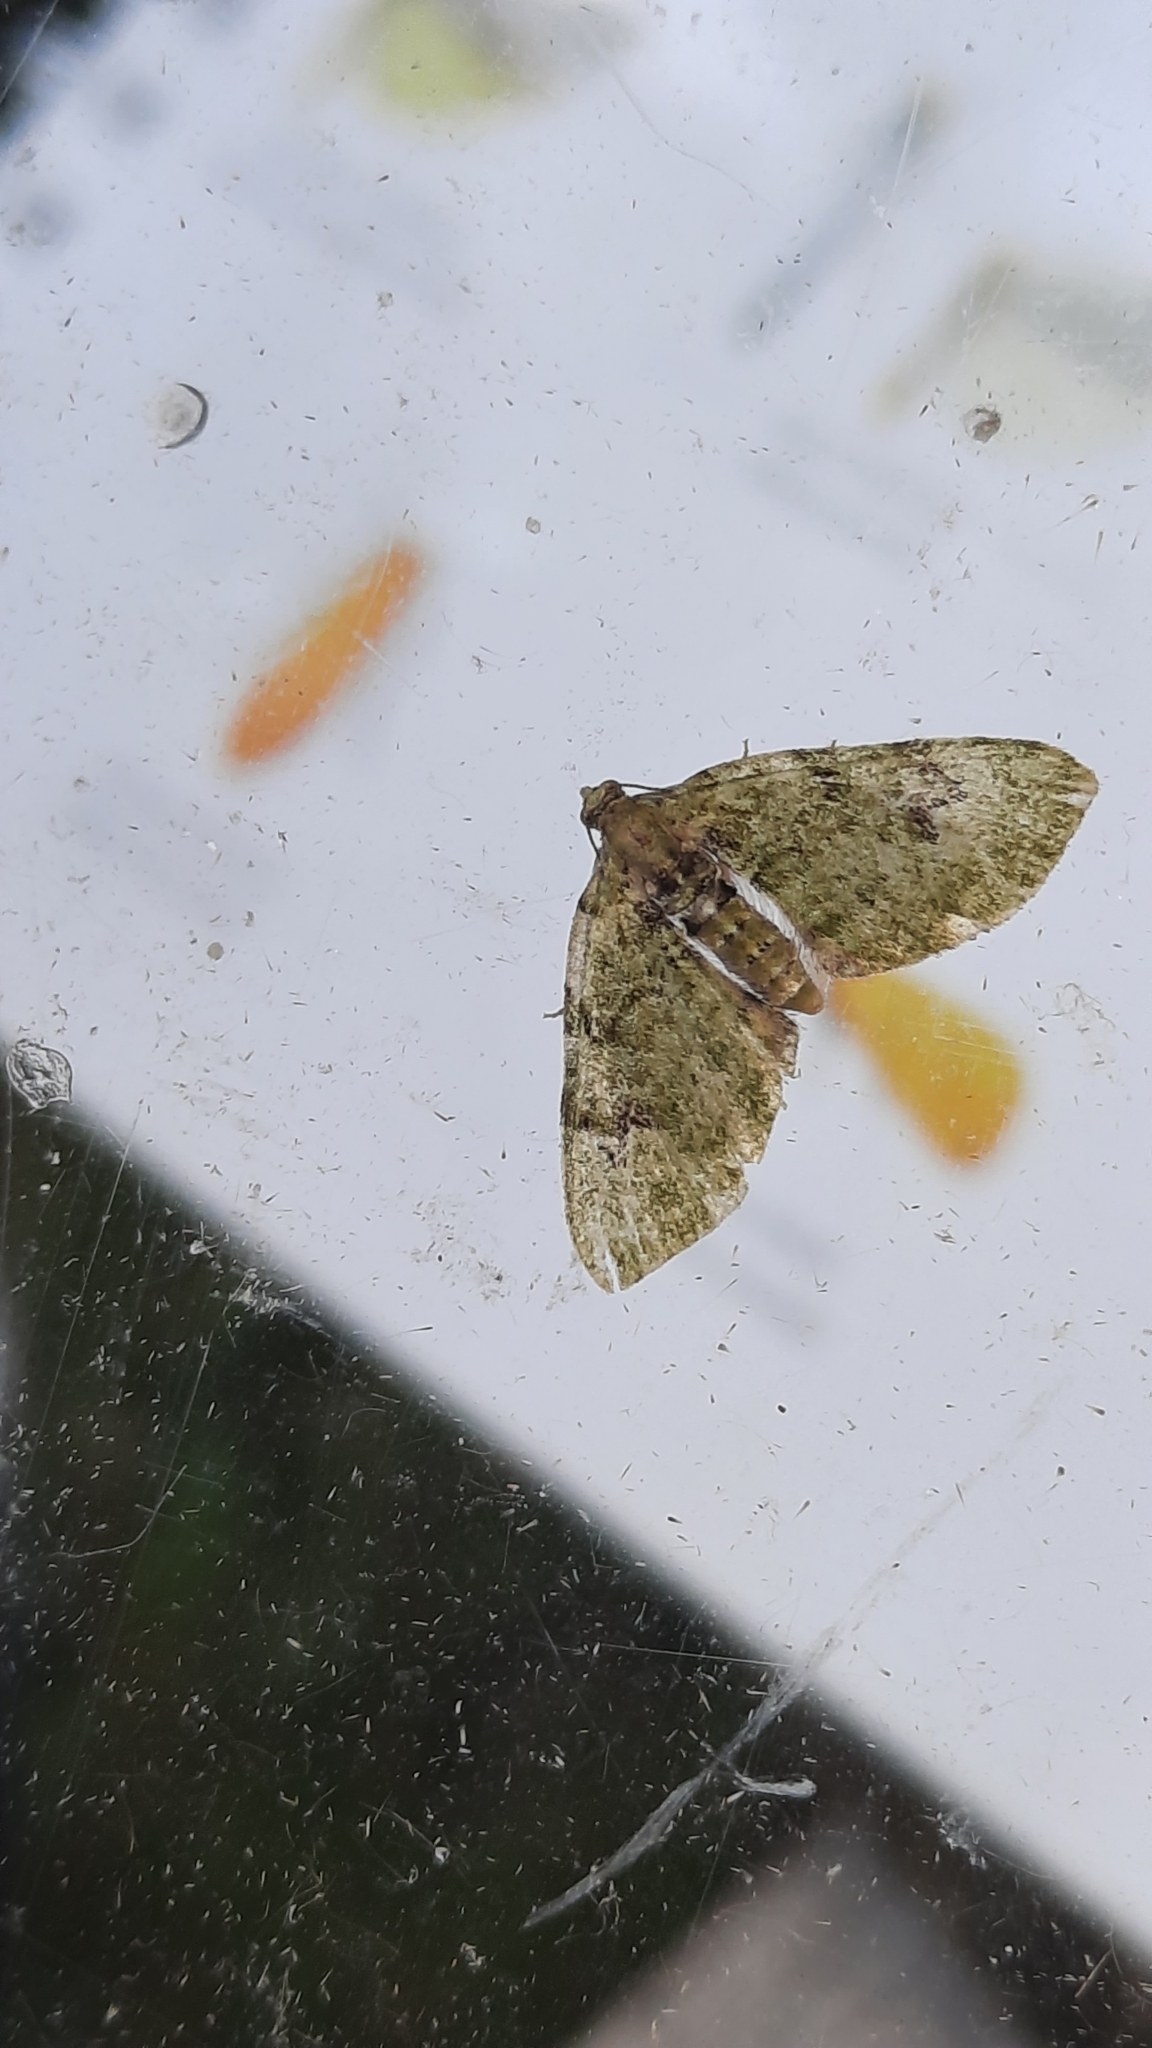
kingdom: Animalia
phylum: Arthropoda
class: Insecta
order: Lepidoptera
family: Geometridae
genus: Chloroclystis
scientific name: Chloroclystis v-ata
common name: V-pug
